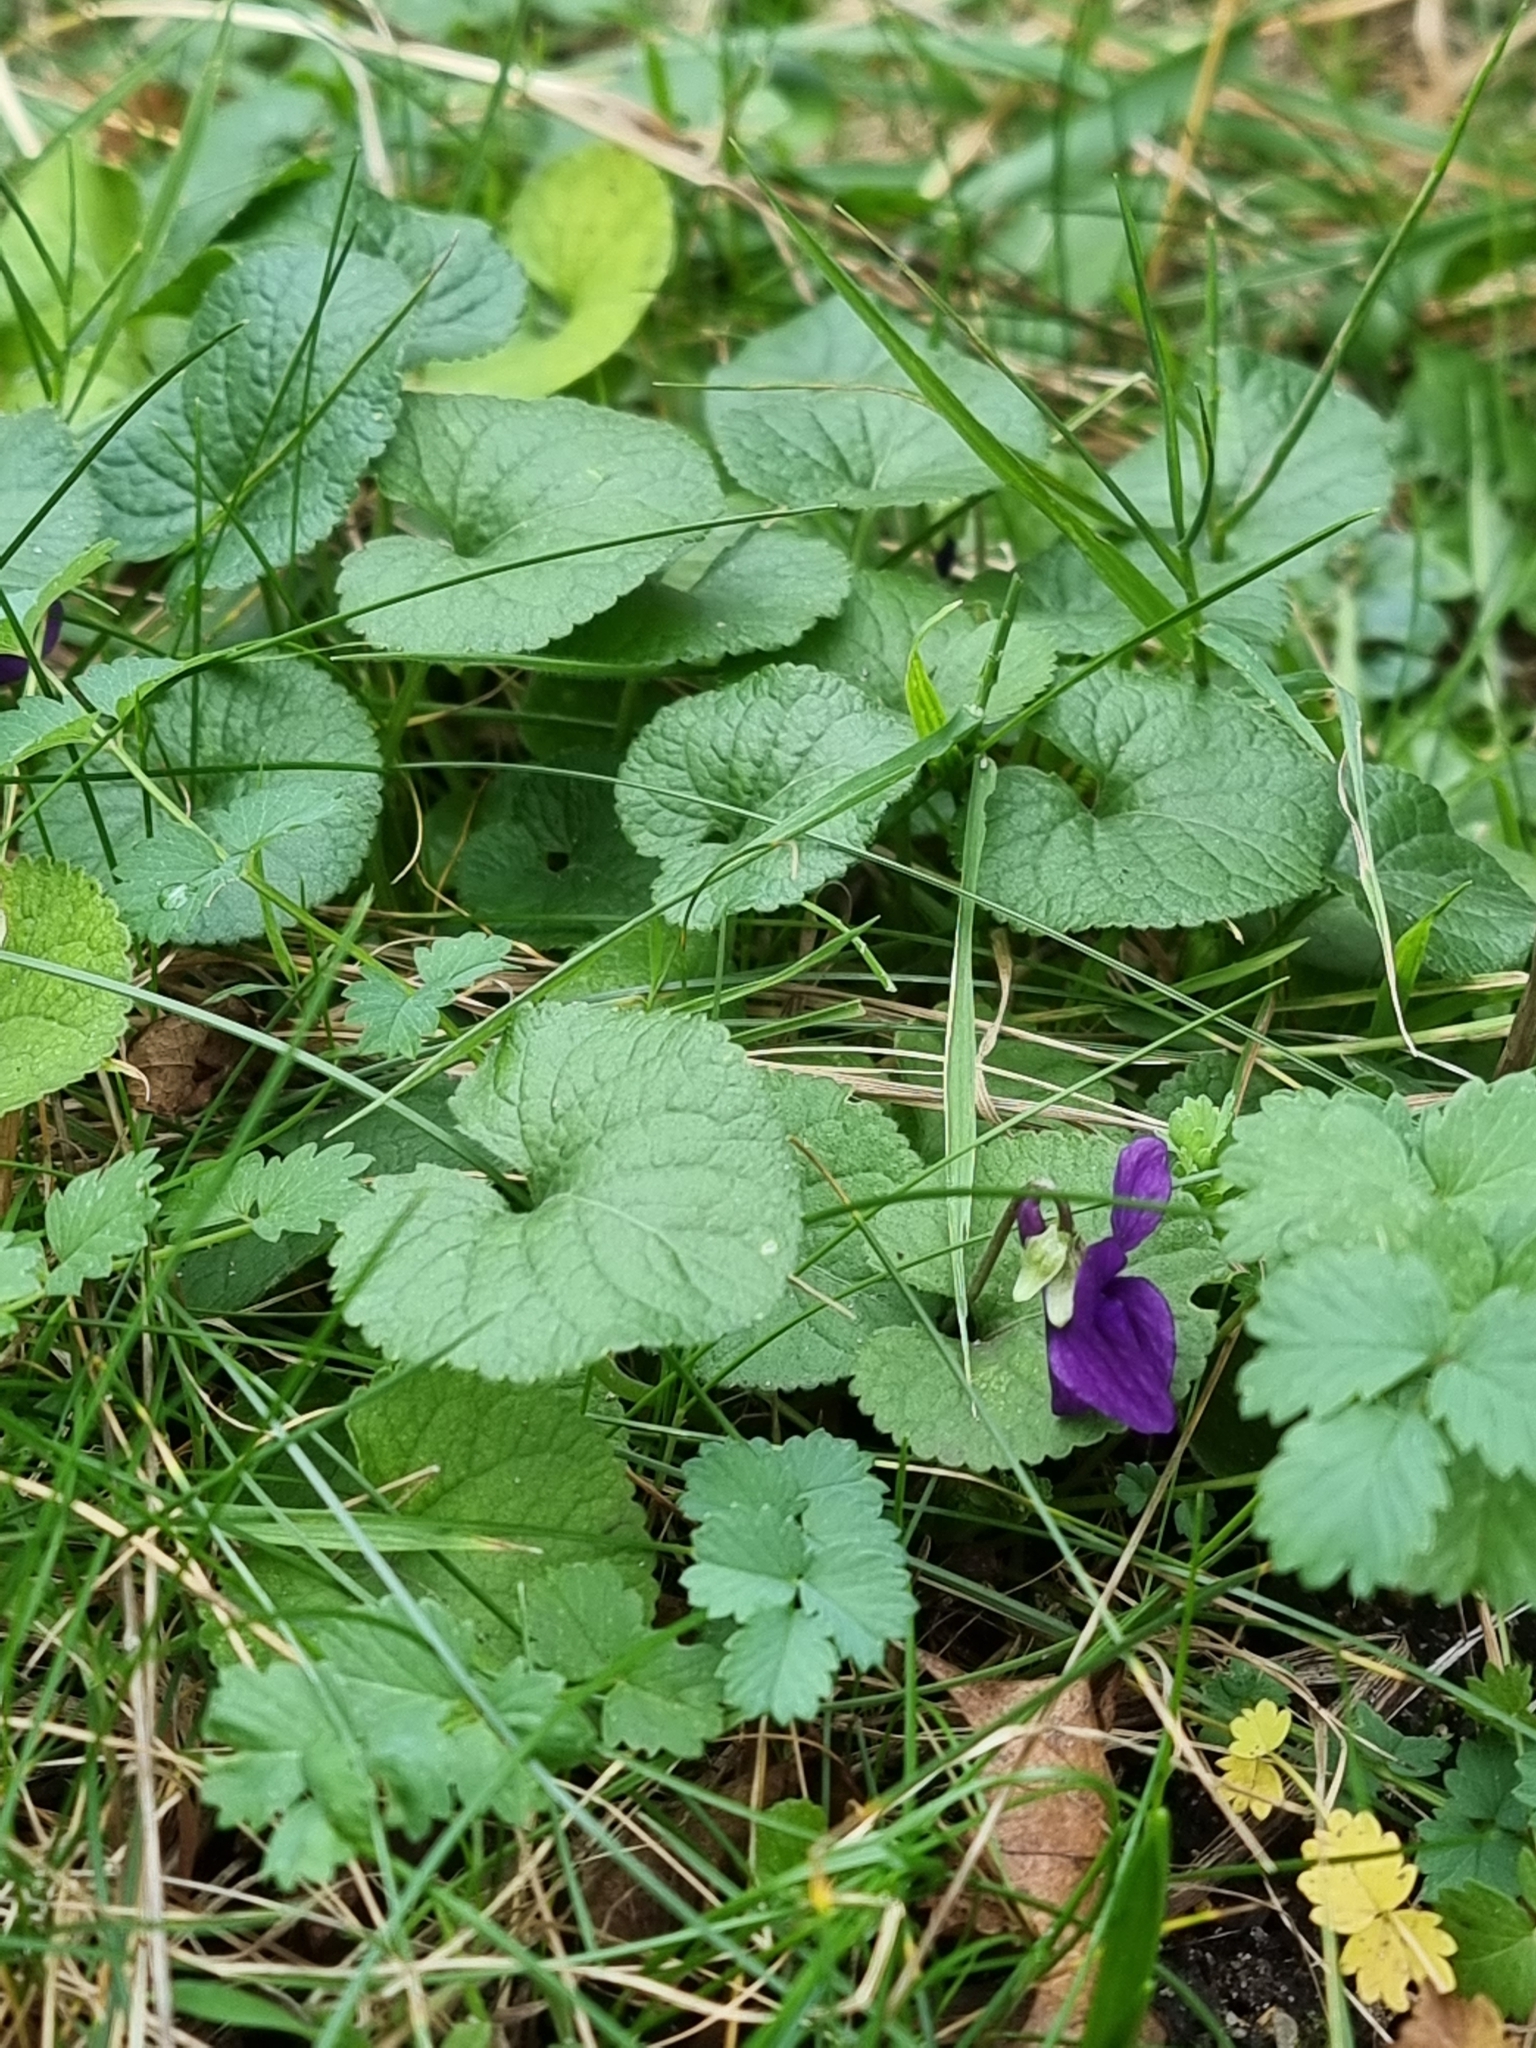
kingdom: Plantae
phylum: Tracheophyta
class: Magnoliopsida
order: Malpighiales
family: Violaceae
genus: Viola
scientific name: Viola odorata
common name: Sweet violet
